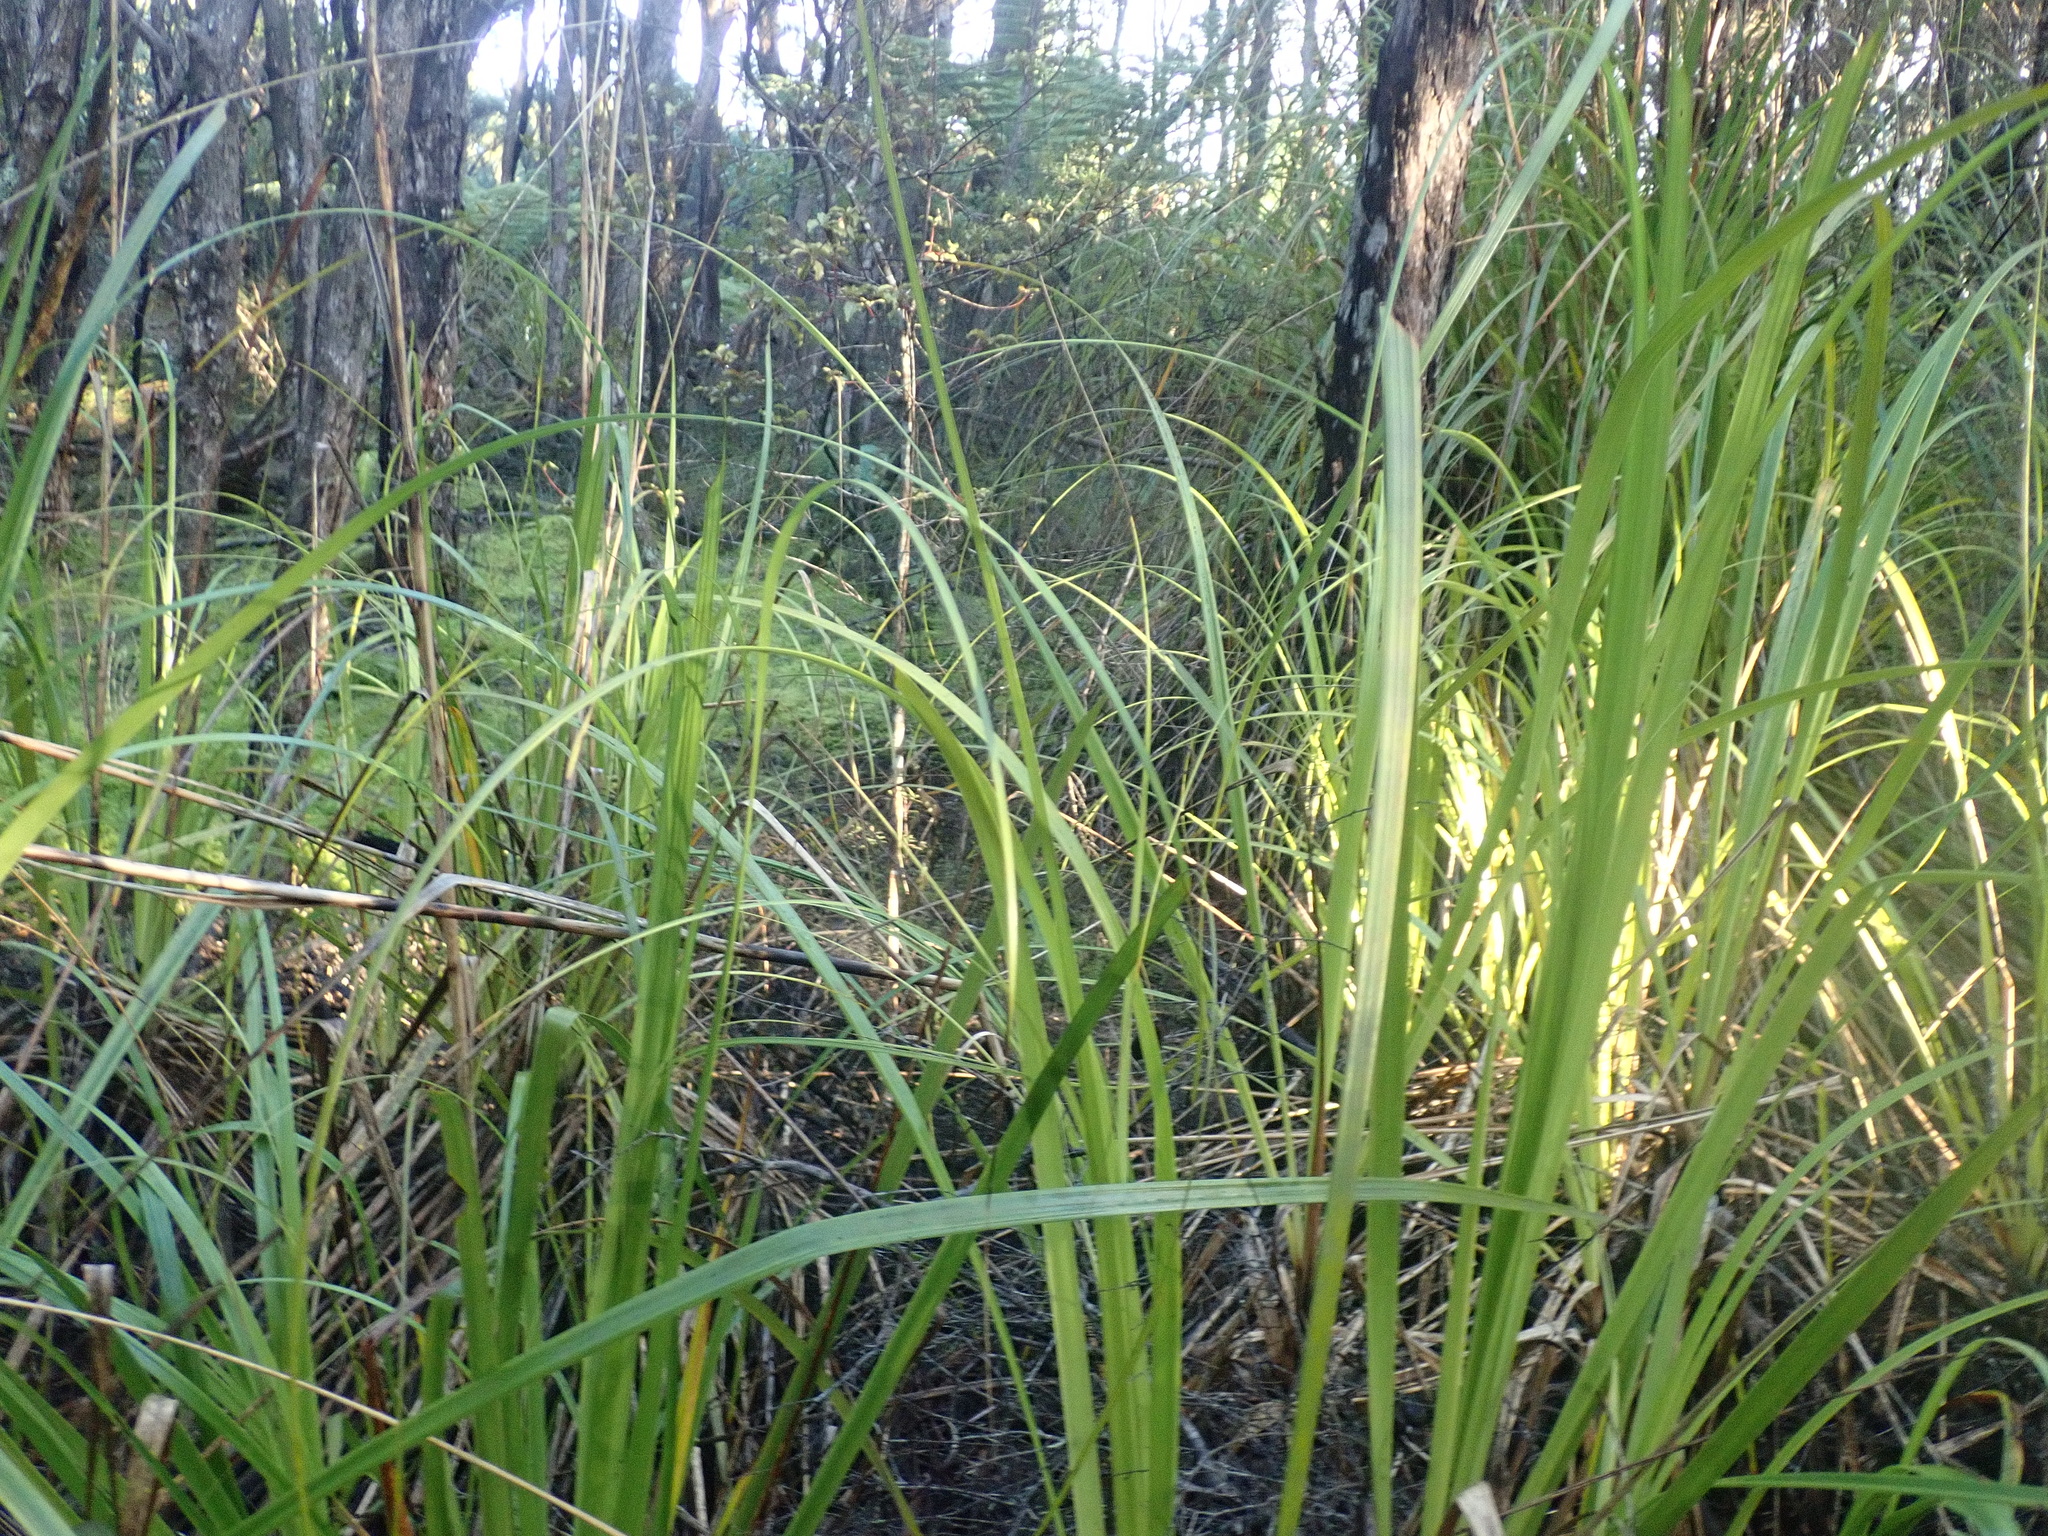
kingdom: Plantae
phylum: Tracheophyta
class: Liliopsida
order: Poales
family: Cyperaceae
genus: Gahnia
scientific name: Gahnia xanthocarpa
